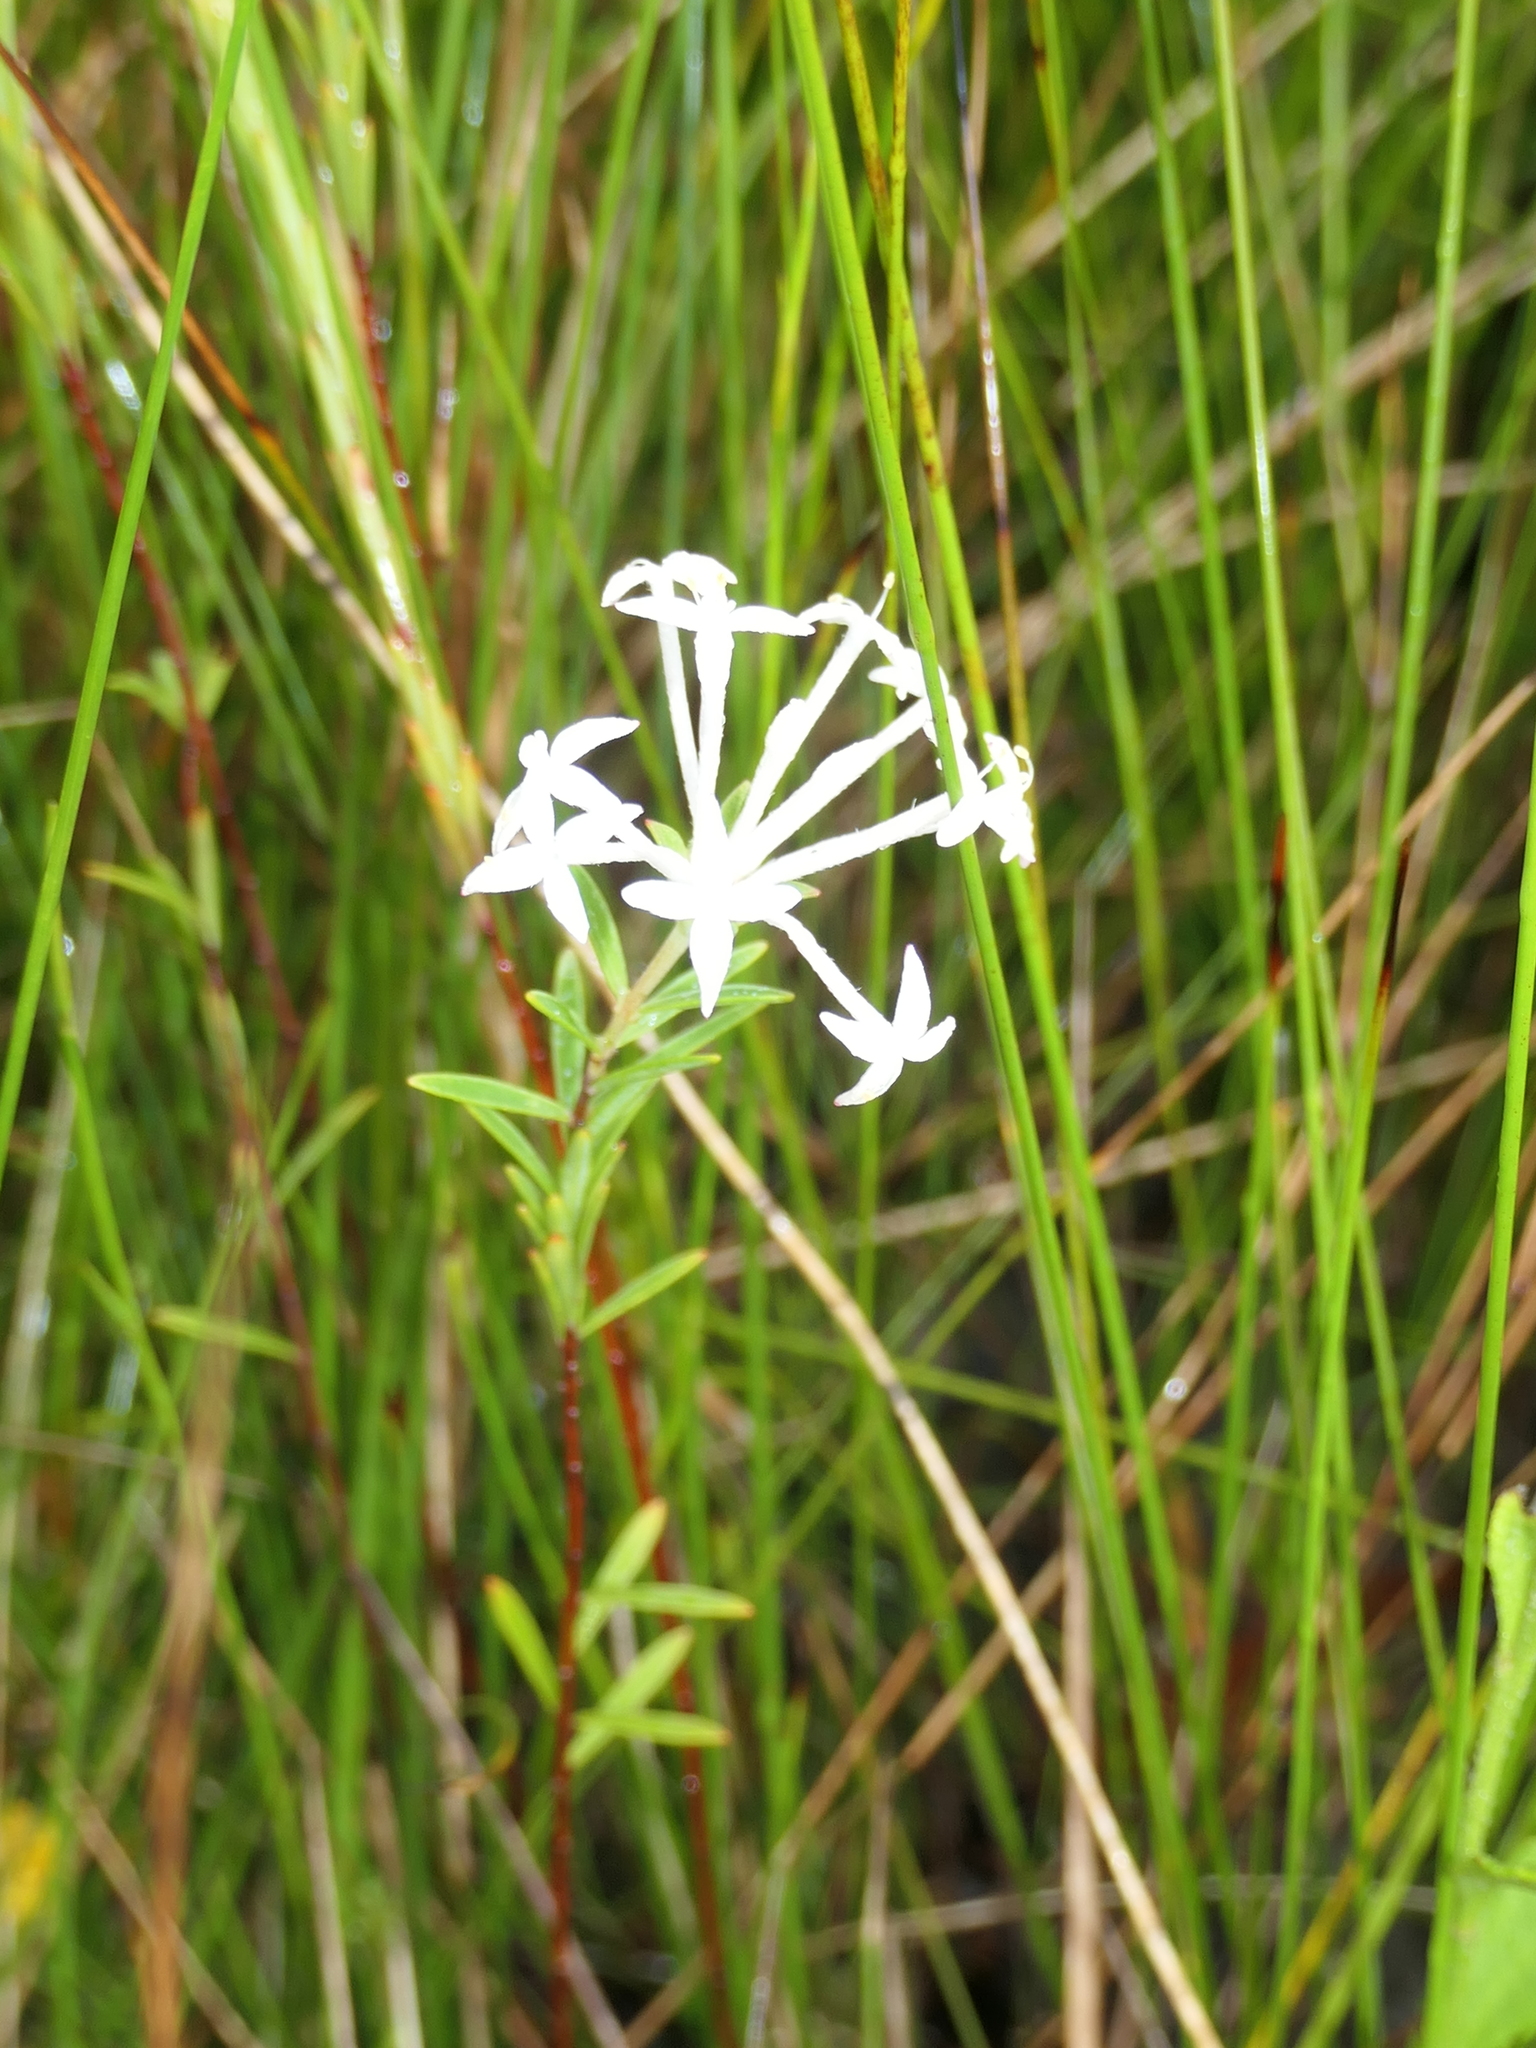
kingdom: Plantae
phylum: Tracheophyta
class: Magnoliopsida
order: Malvales
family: Thymelaeaceae
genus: Pimelea
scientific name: Pimelea linifolia
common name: Queen-of-the-bush
